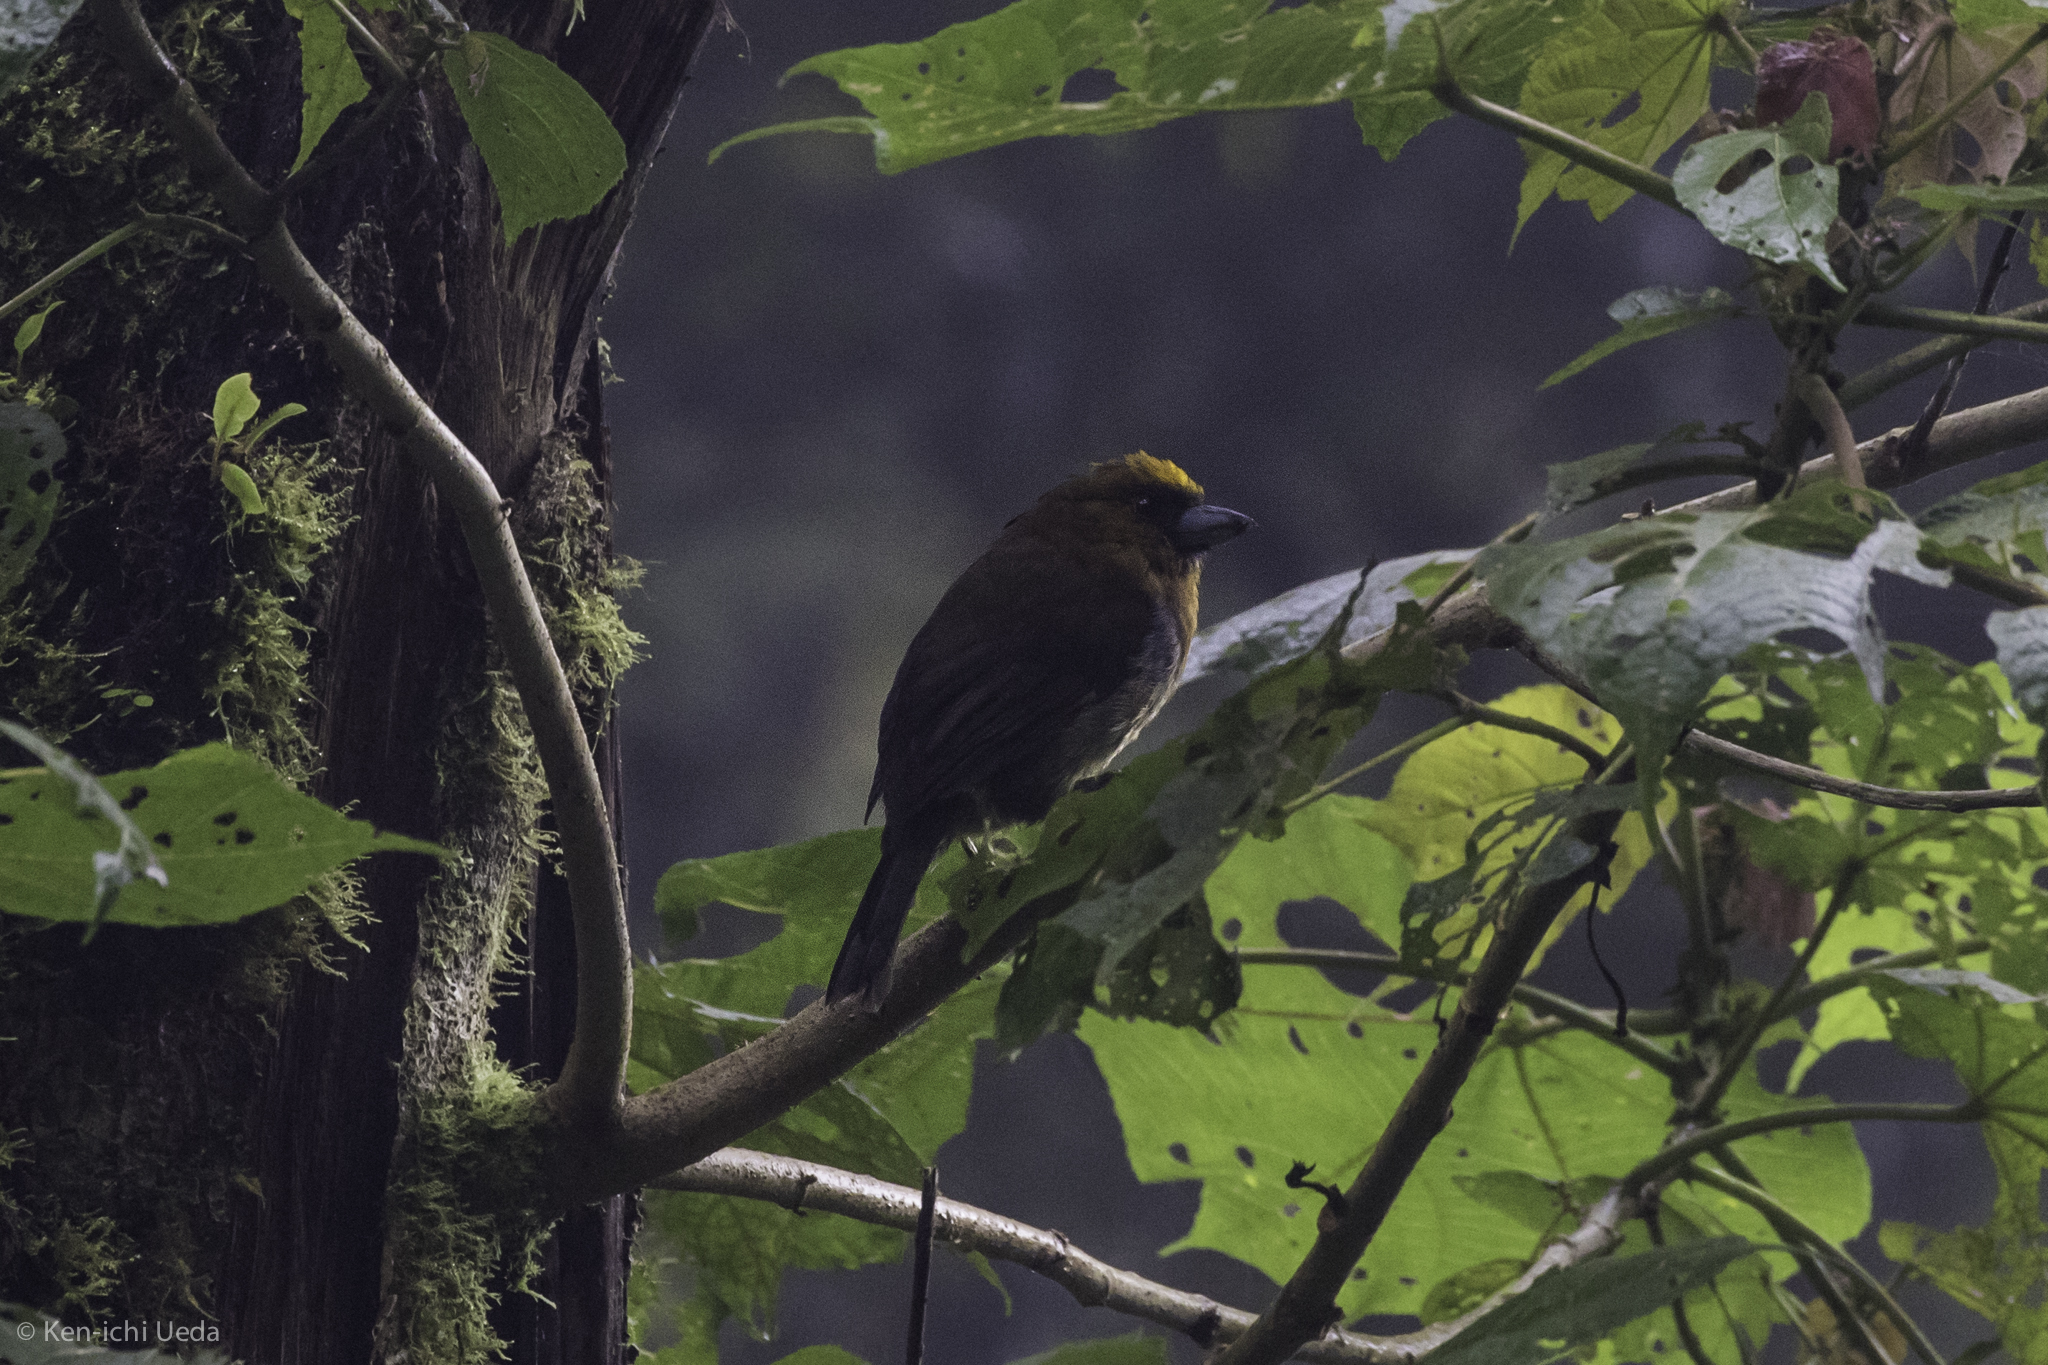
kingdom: Animalia
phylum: Chordata
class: Aves
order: Piciformes
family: Semnornithidae
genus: Semnornis
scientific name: Semnornis frantzii
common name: Prong-billed barbet
